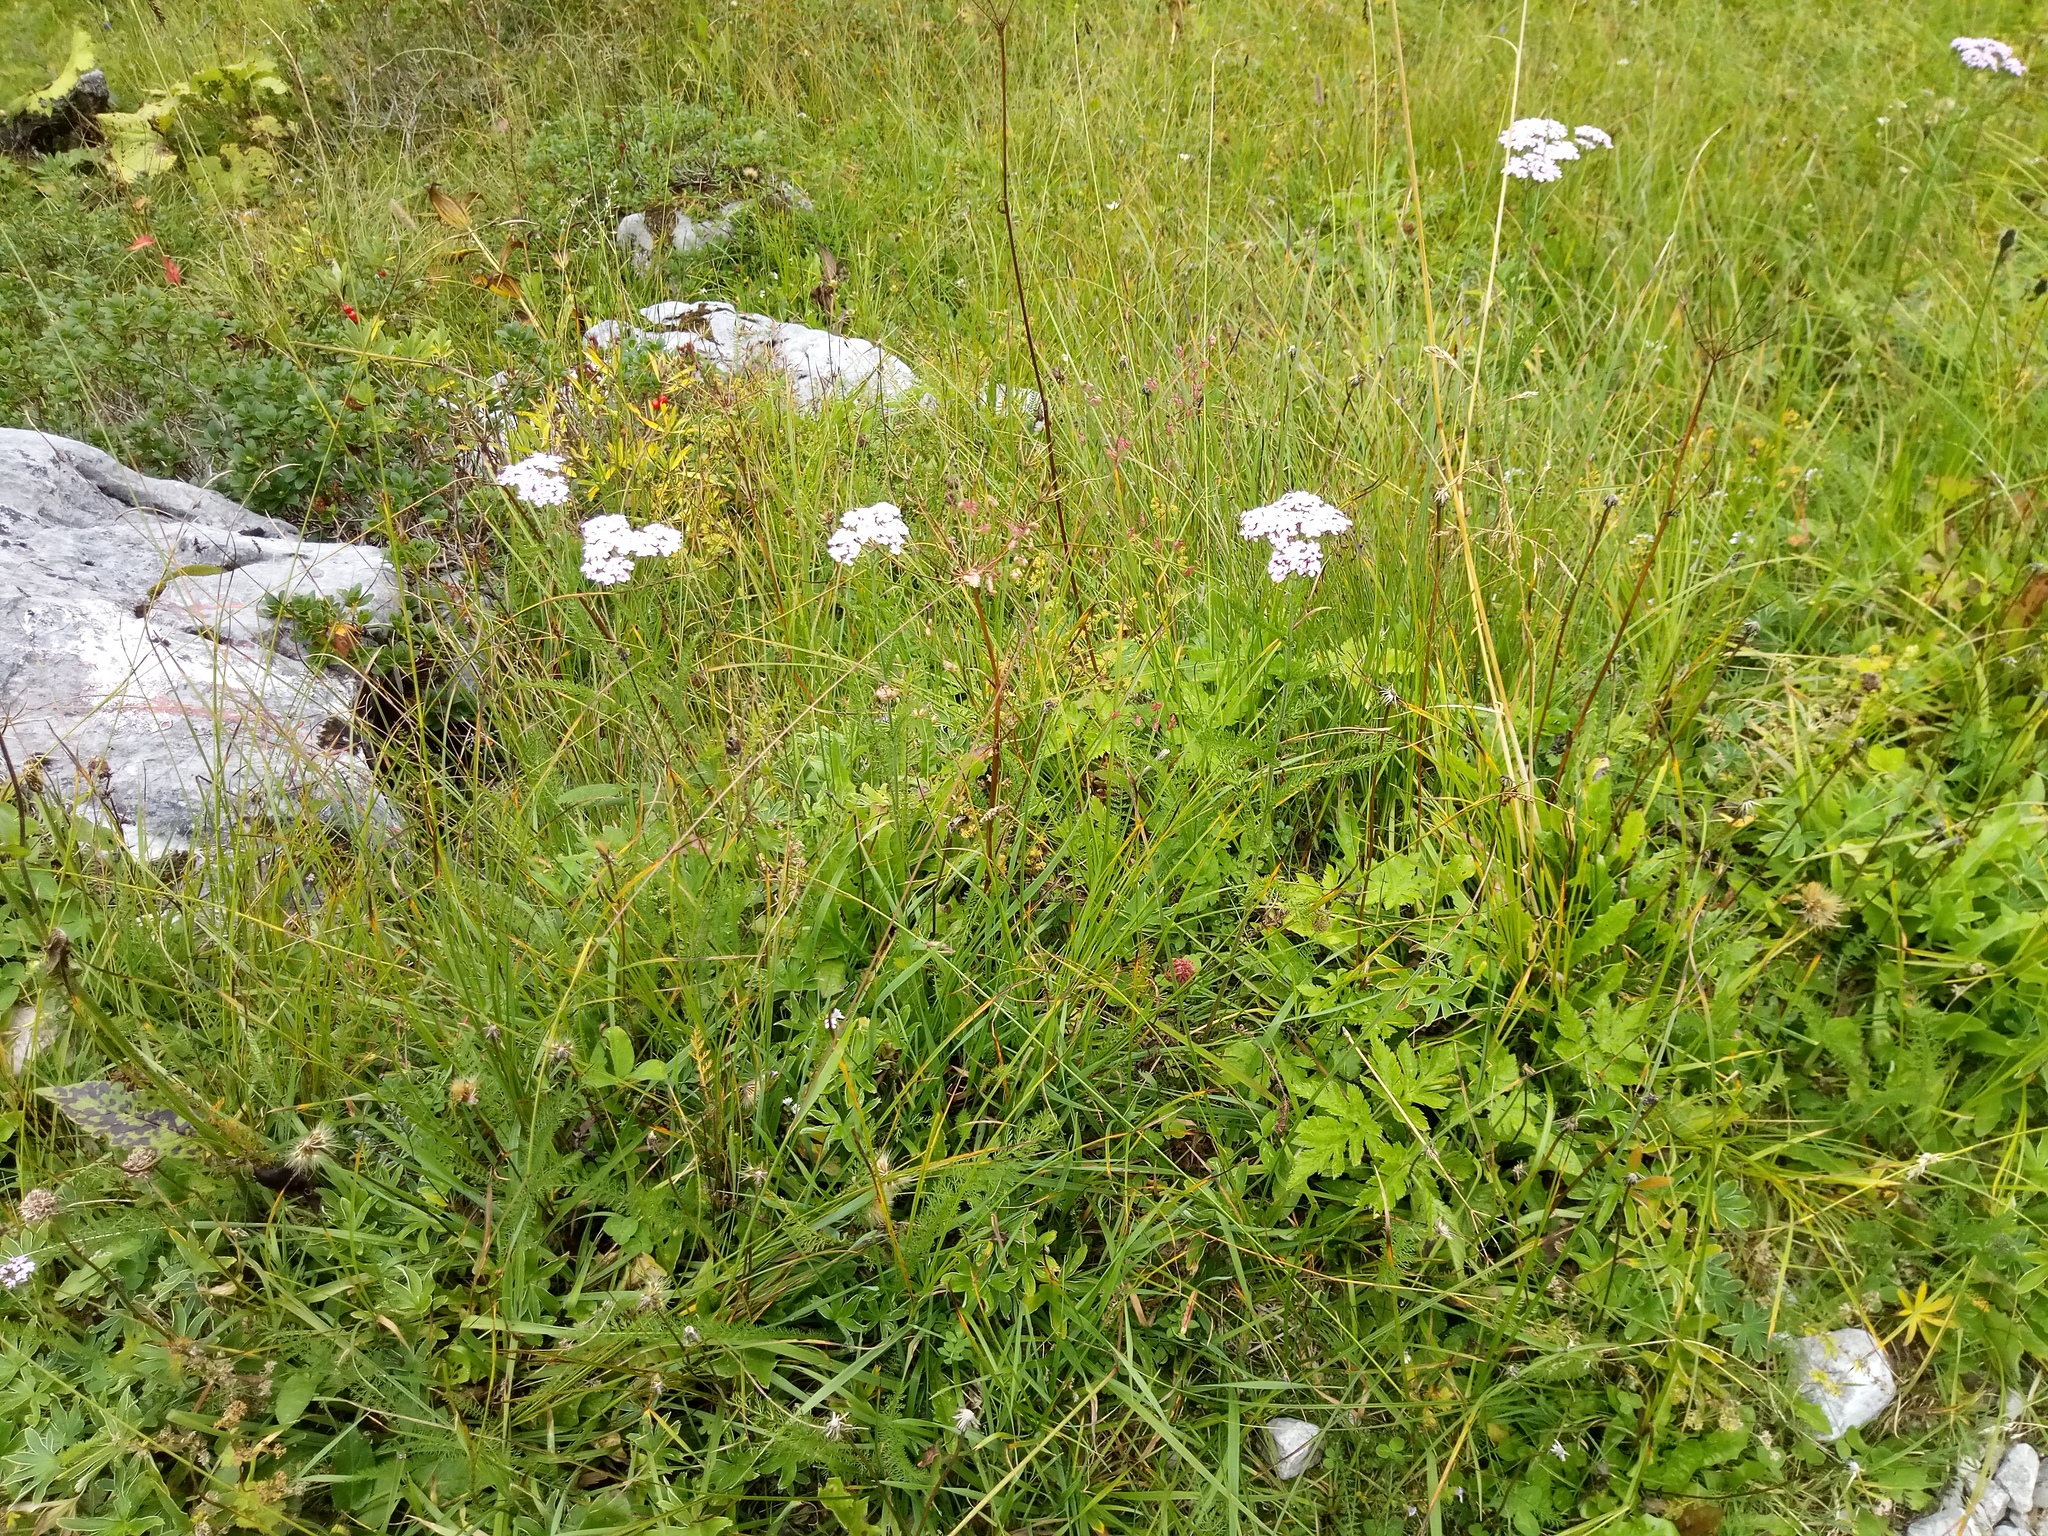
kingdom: Plantae
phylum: Tracheophyta
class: Magnoliopsida
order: Asterales
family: Asteraceae
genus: Achillea
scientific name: Achillea
